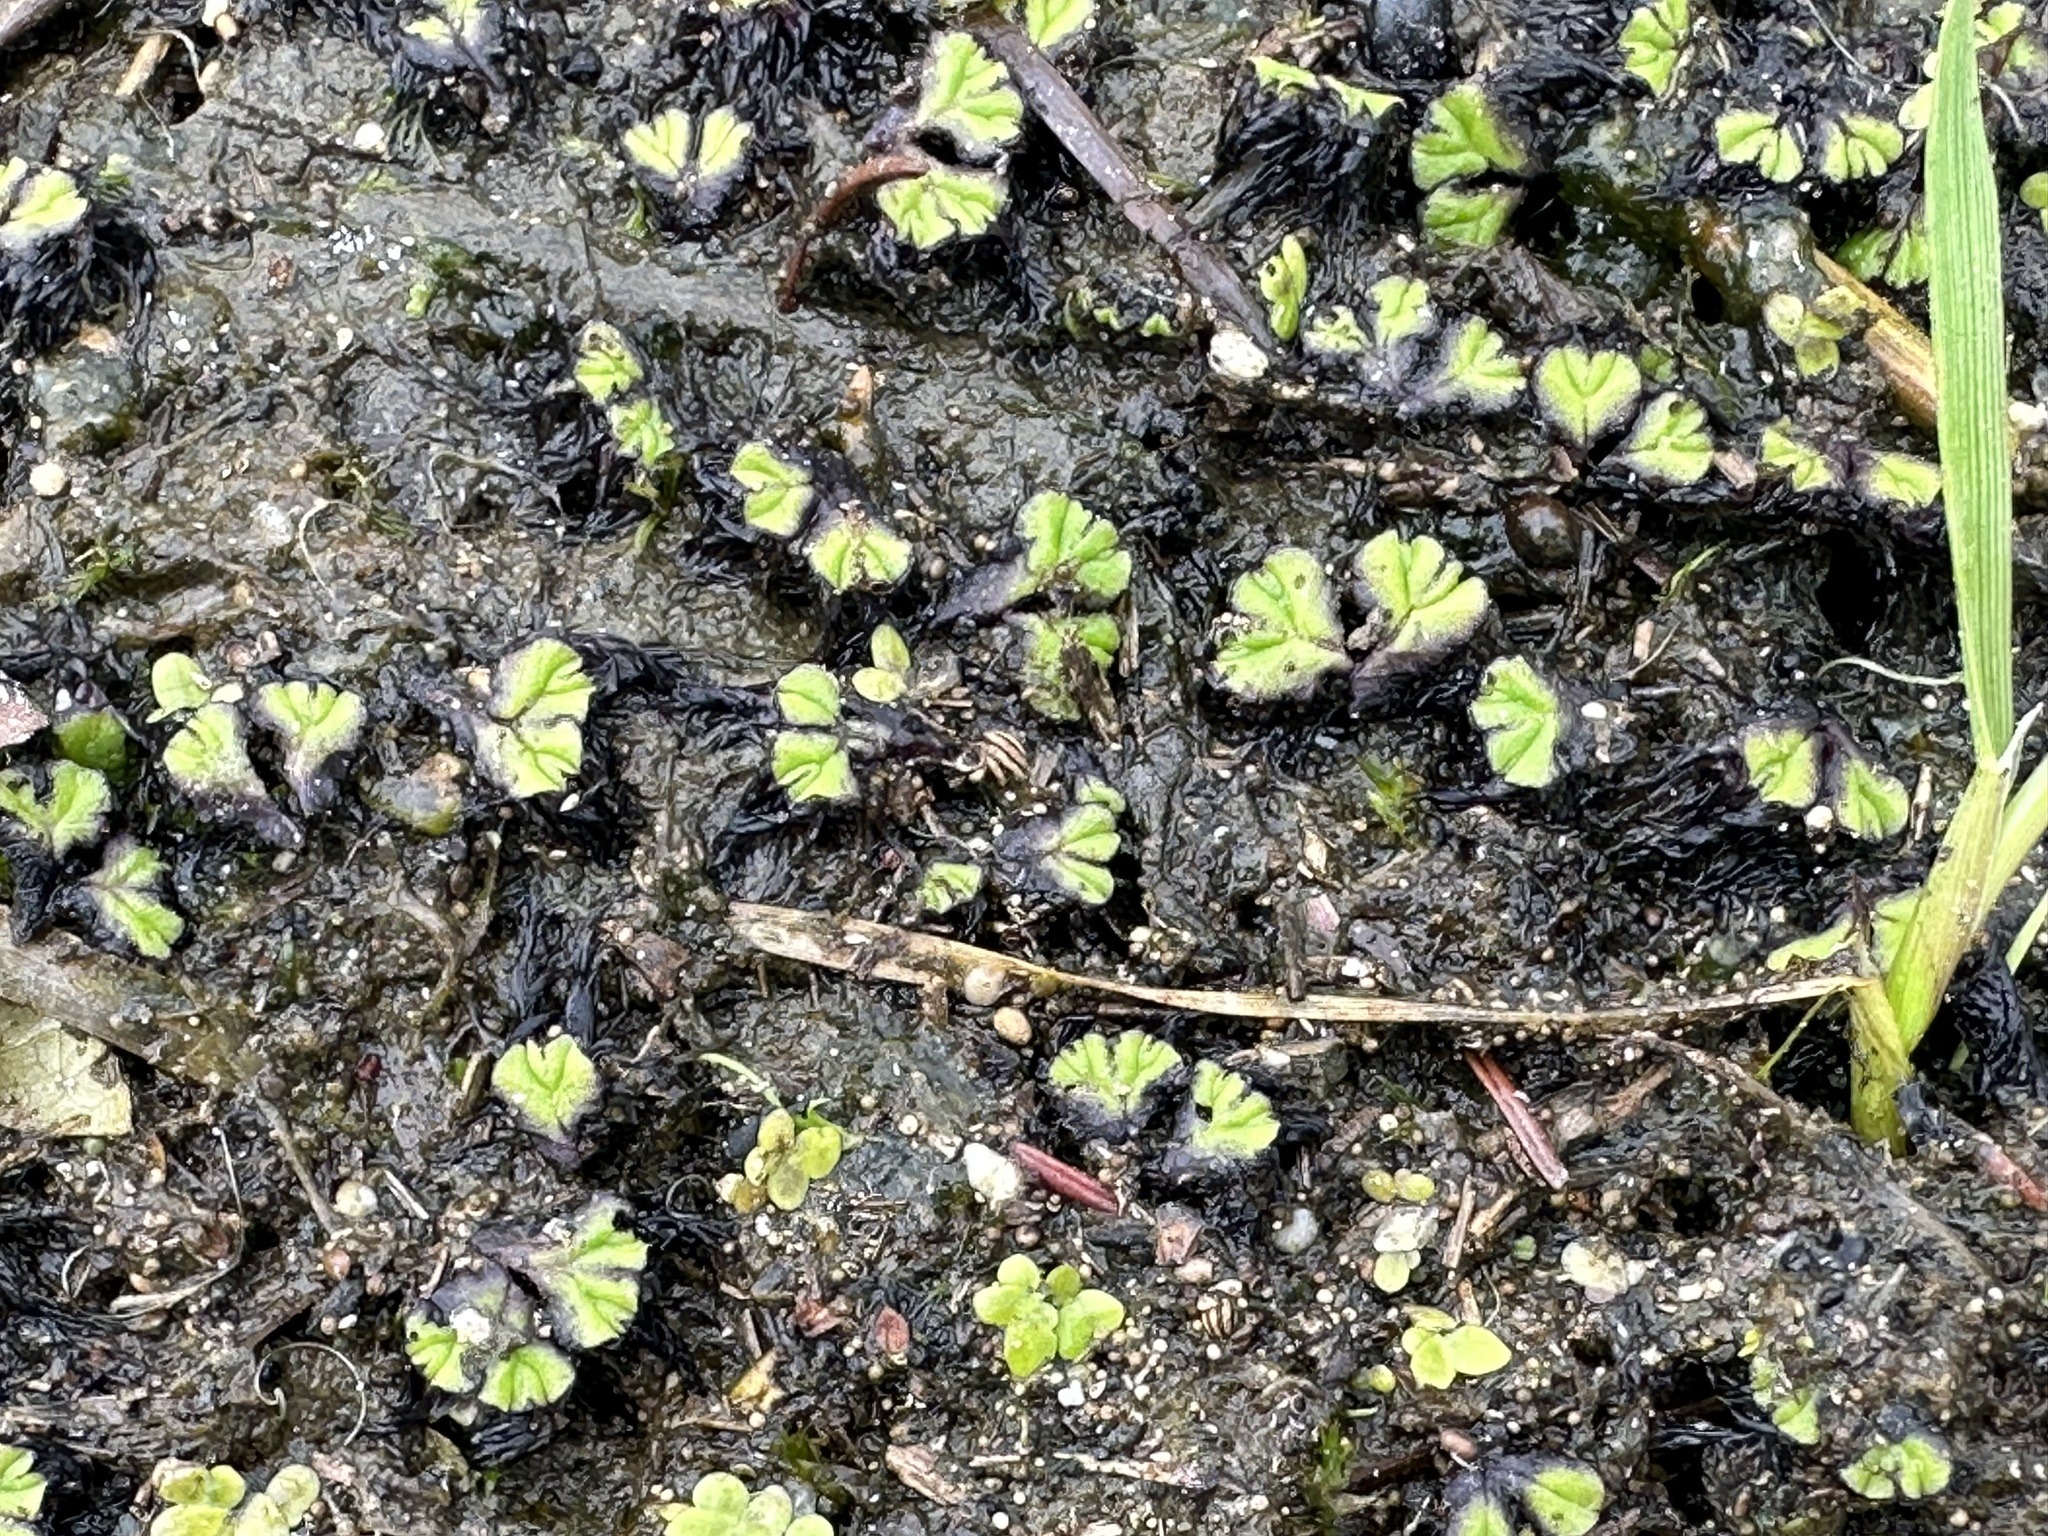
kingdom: Plantae
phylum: Marchantiophyta
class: Marchantiopsida
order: Marchantiales
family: Ricciaceae
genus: Ricciocarpos
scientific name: Ricciocarpos natans
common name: Purple-fringed liverwort
